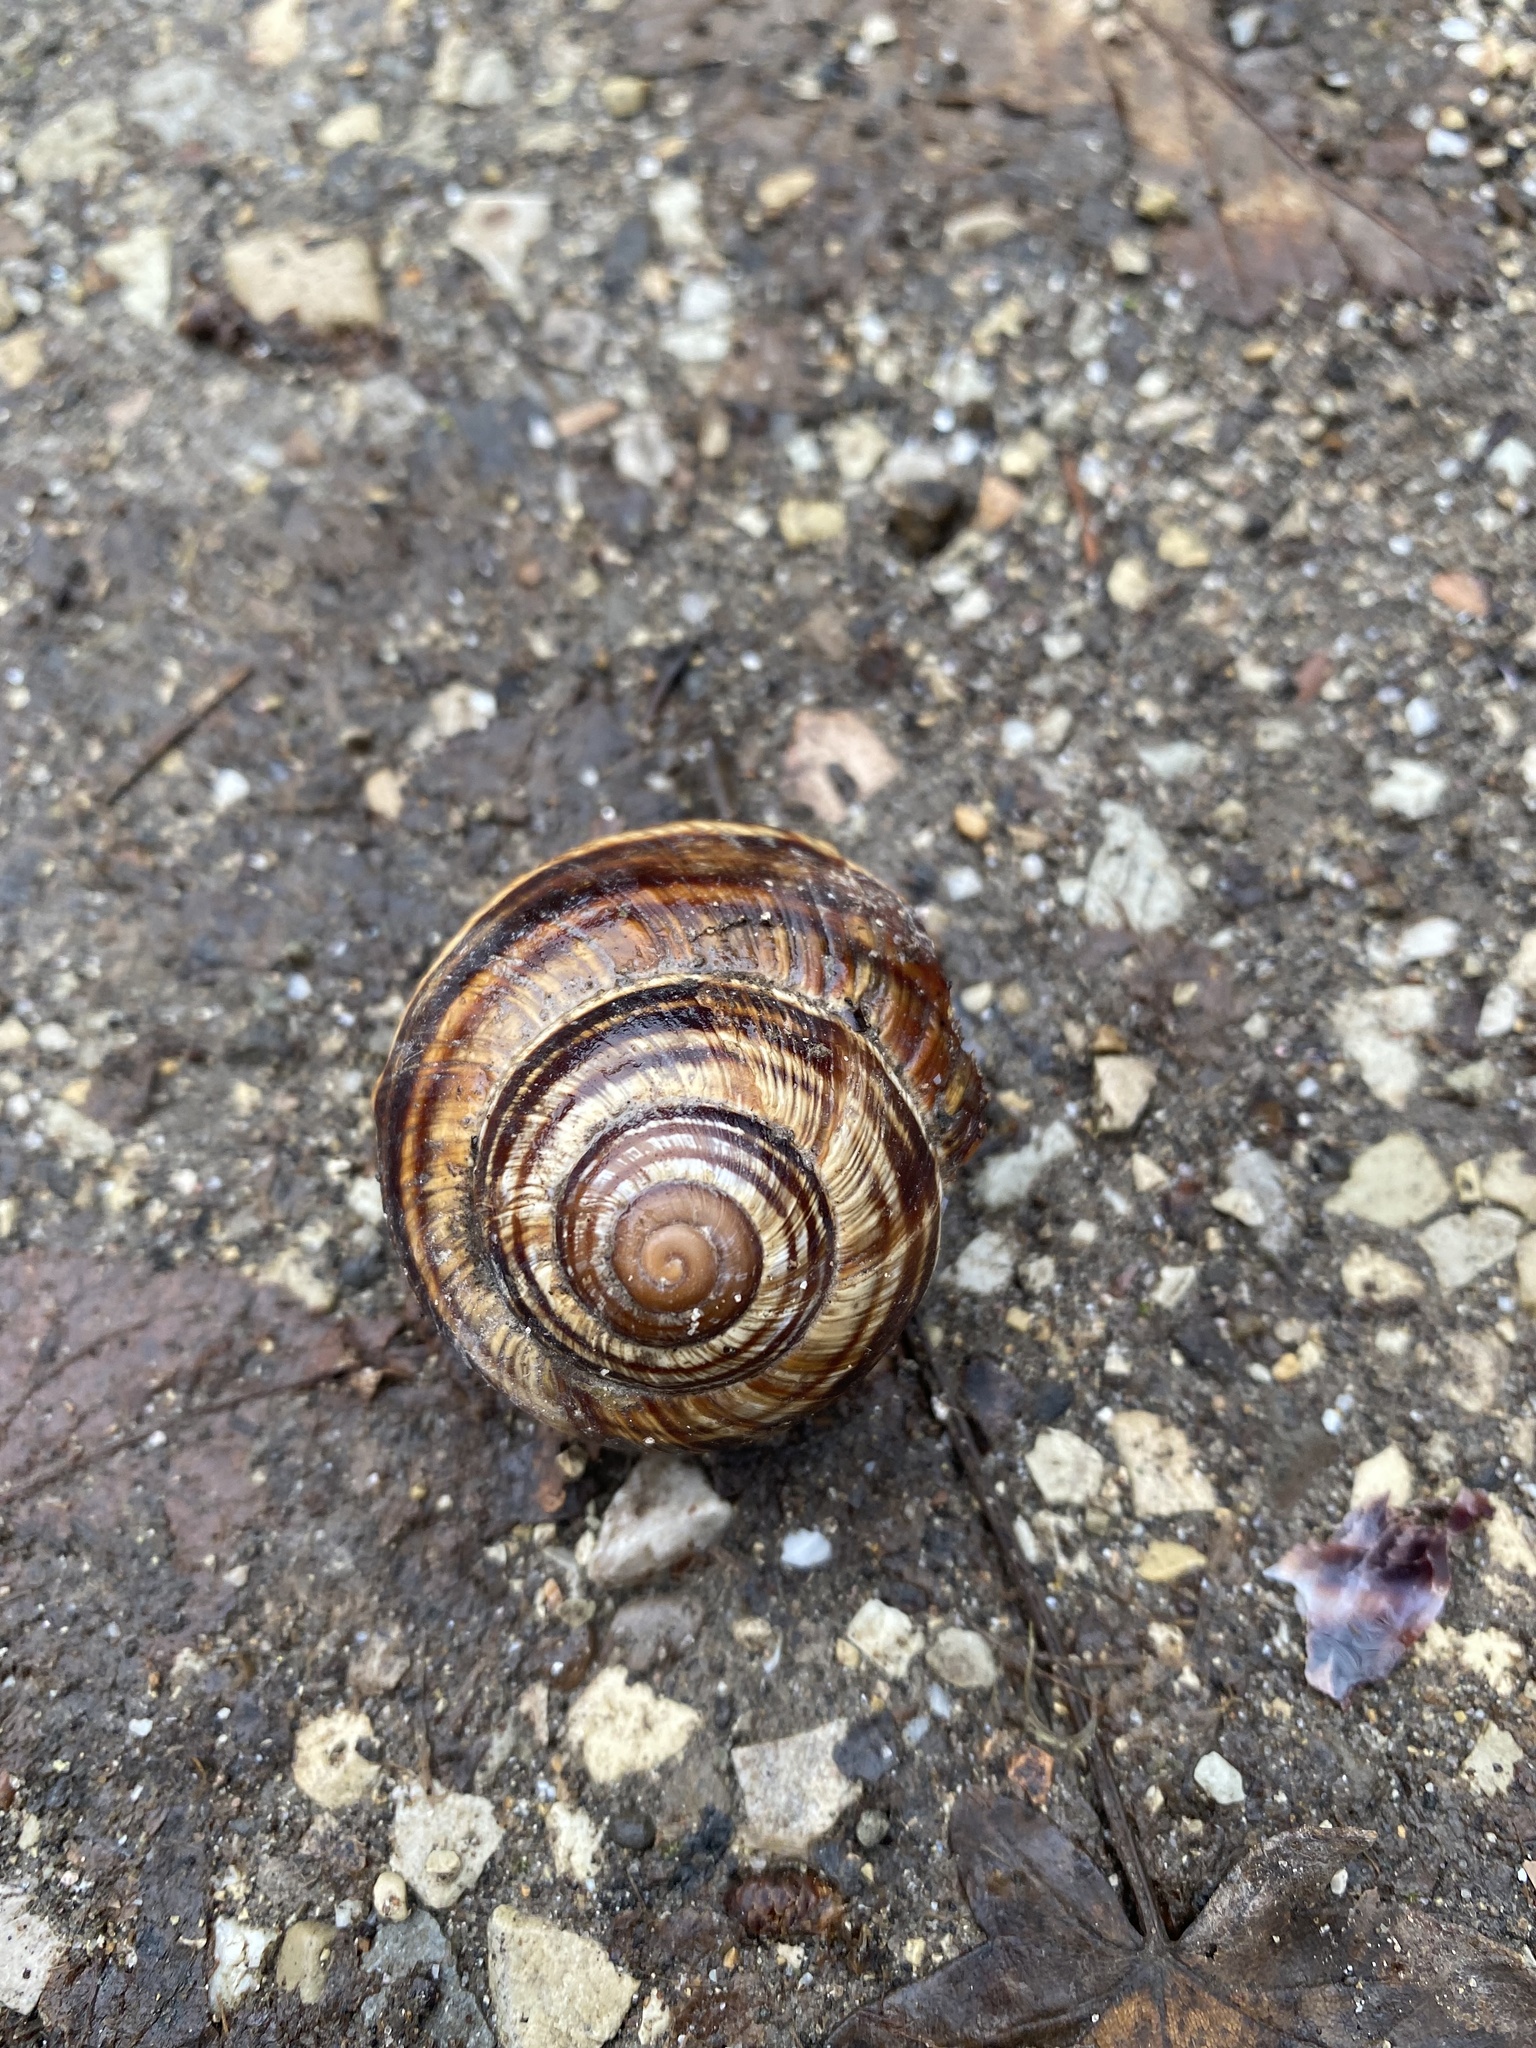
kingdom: Animalia
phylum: Mollusca
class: Gastropoda
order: Stylommatophora
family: Helicidae
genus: Helix
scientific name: Helix lucorum
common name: Turkish snail
